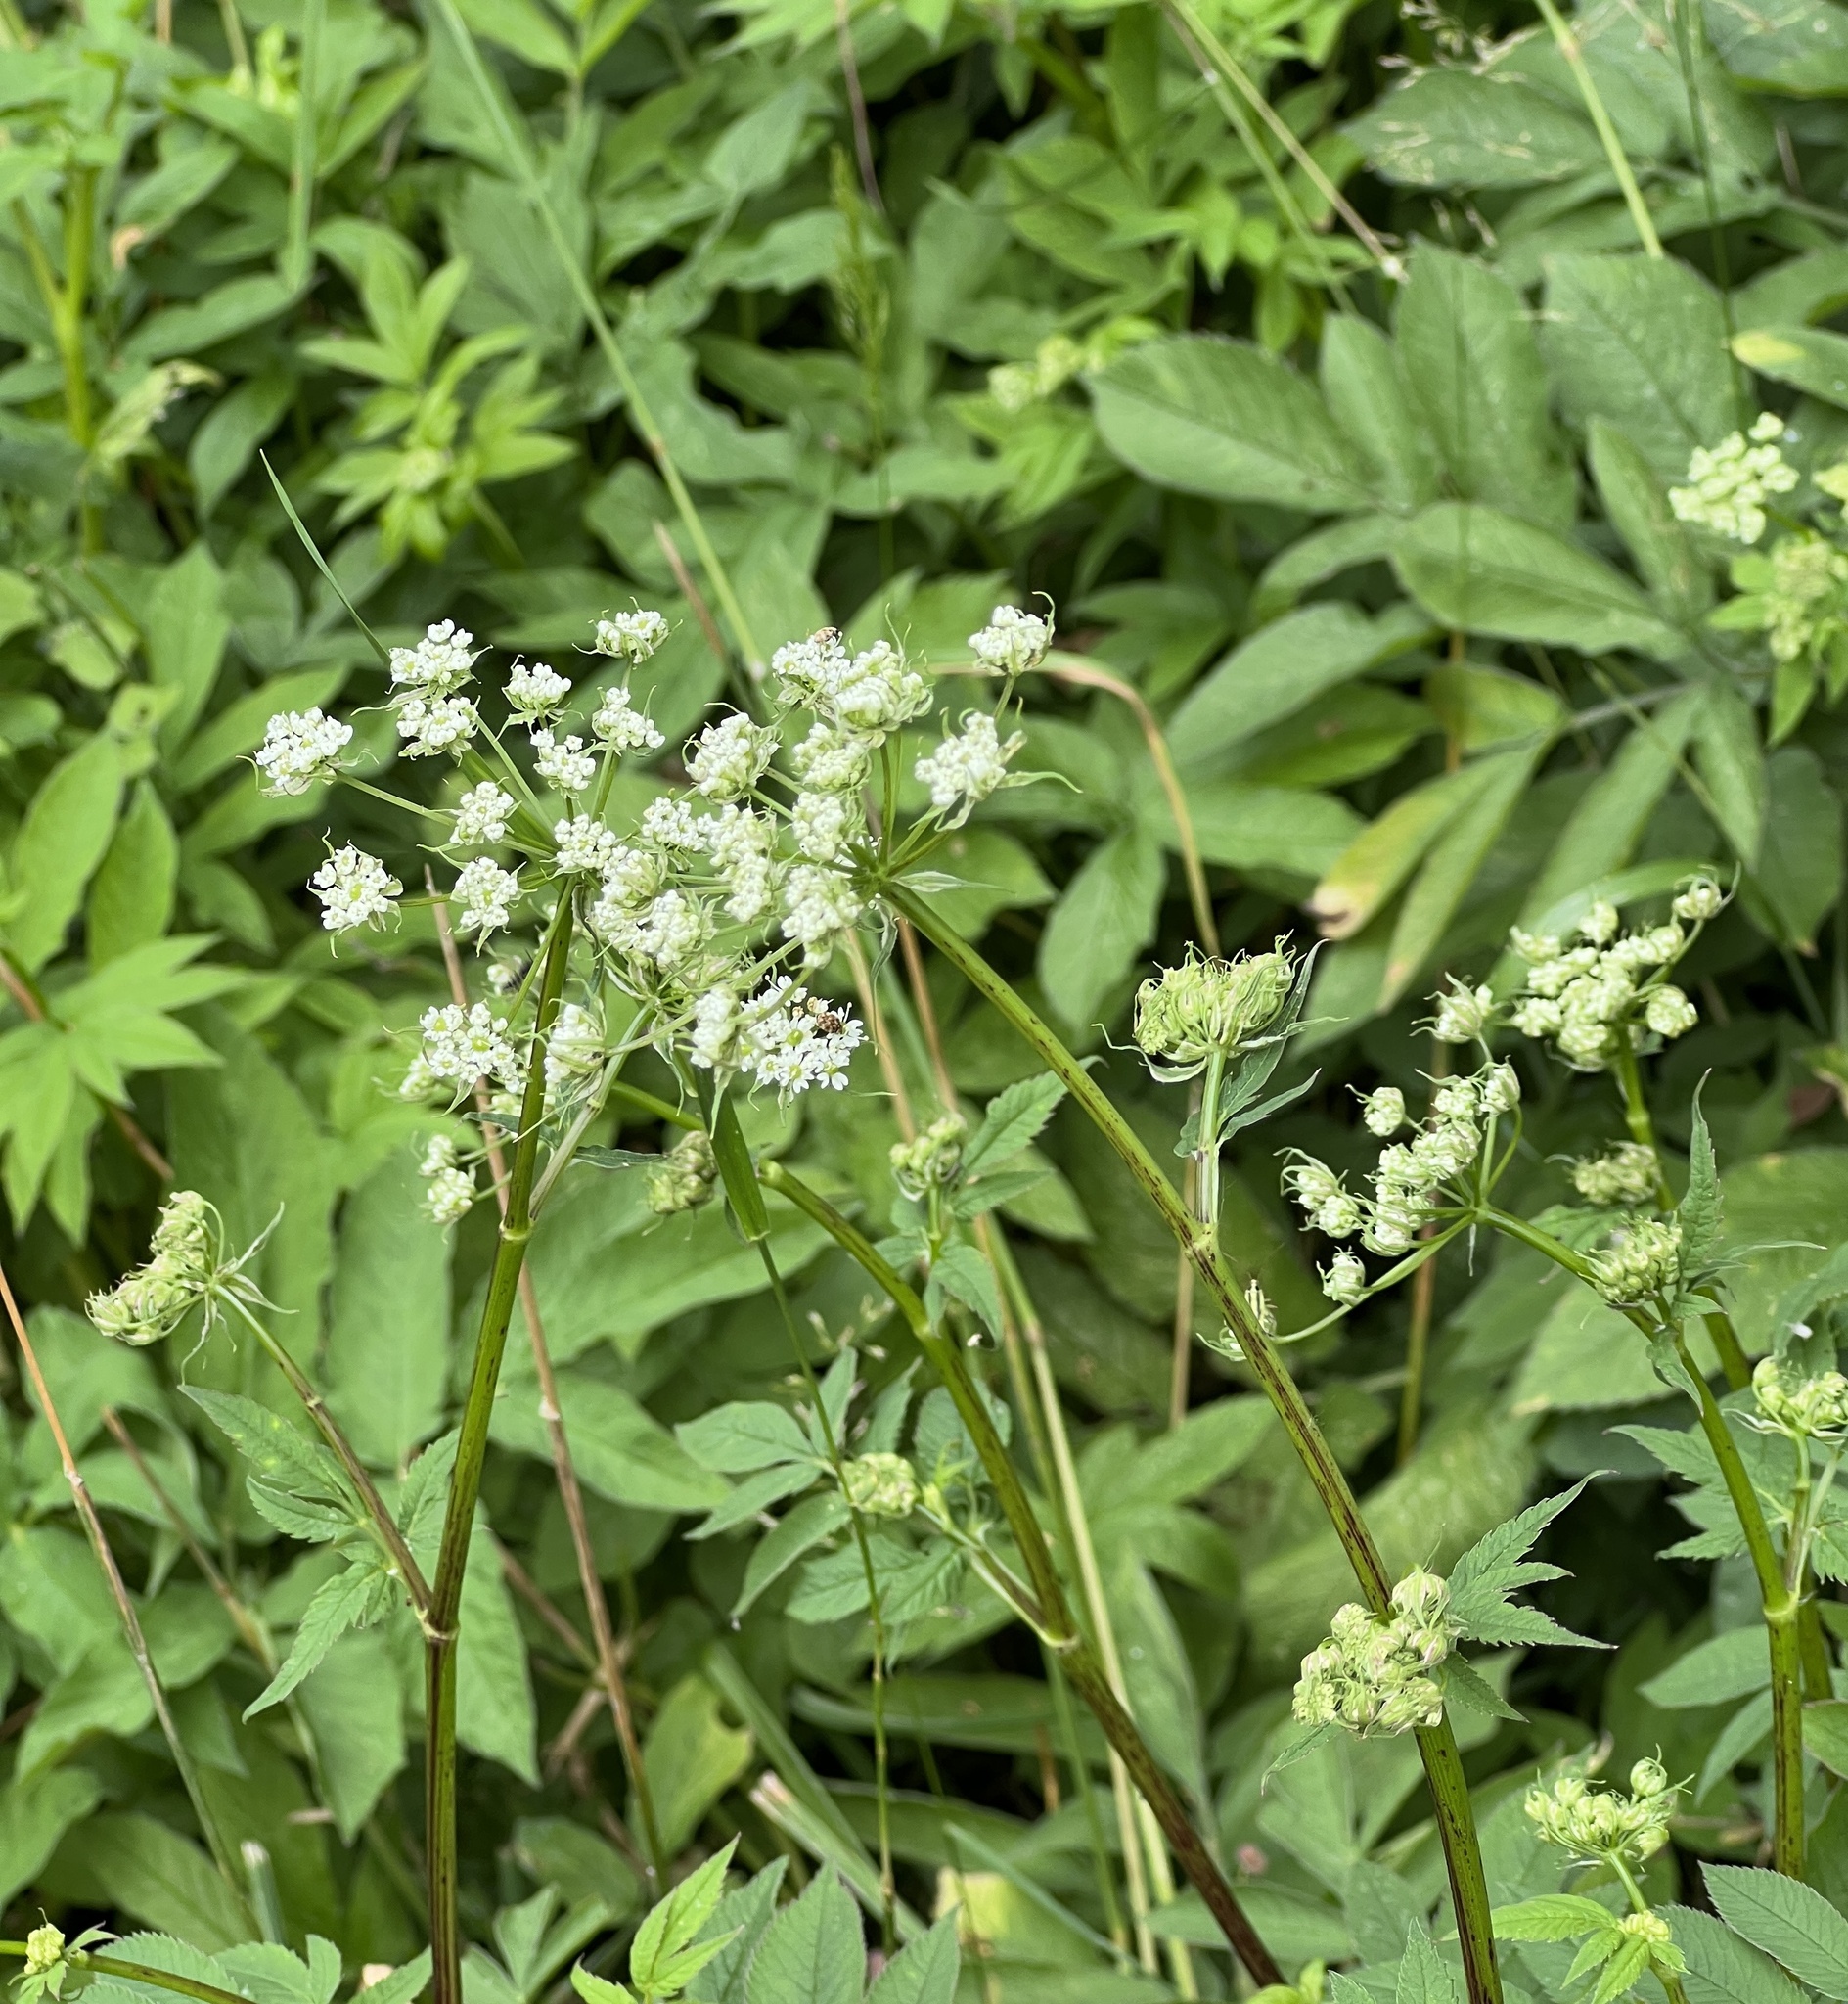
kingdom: Plantae
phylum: Tracheophyta
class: Magnoliopsida
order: Apiales
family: Apiaceae
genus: Chaerophyllum
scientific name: Chaerophyllum aromaticum
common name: Broadleaf chervil
